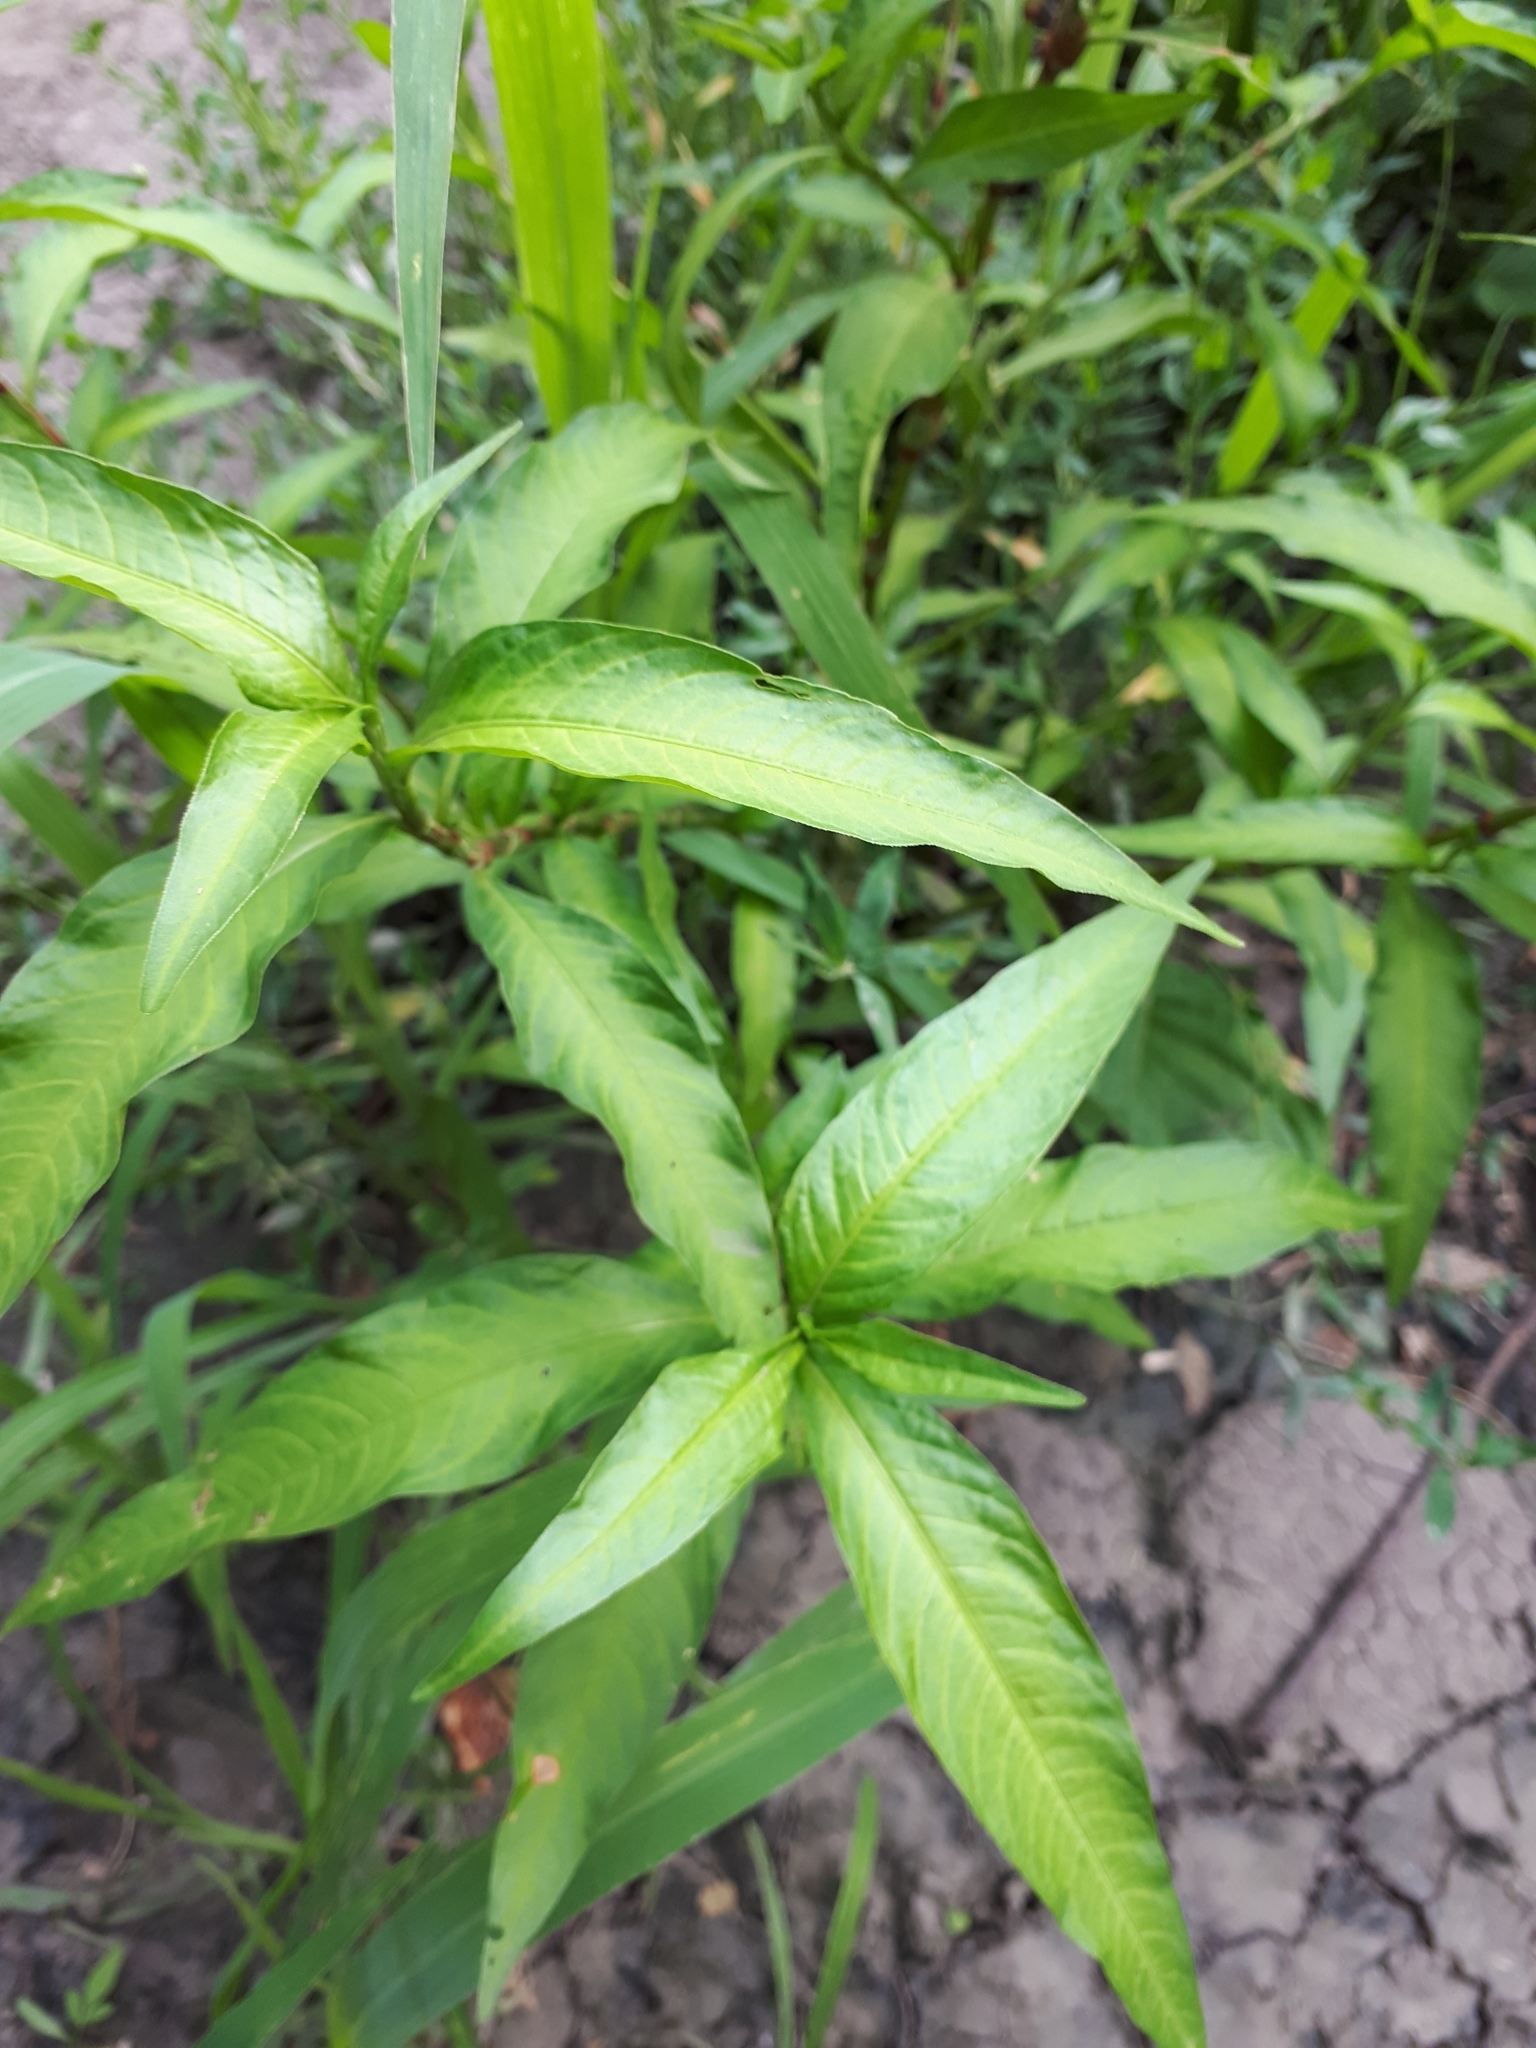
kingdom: Plantae
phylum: Tracheophyta
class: Magnoliopsida
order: Caryophyllales
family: Polygonaceae
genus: Persicaria
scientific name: Persicaria hydropiper
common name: Water-pepper
